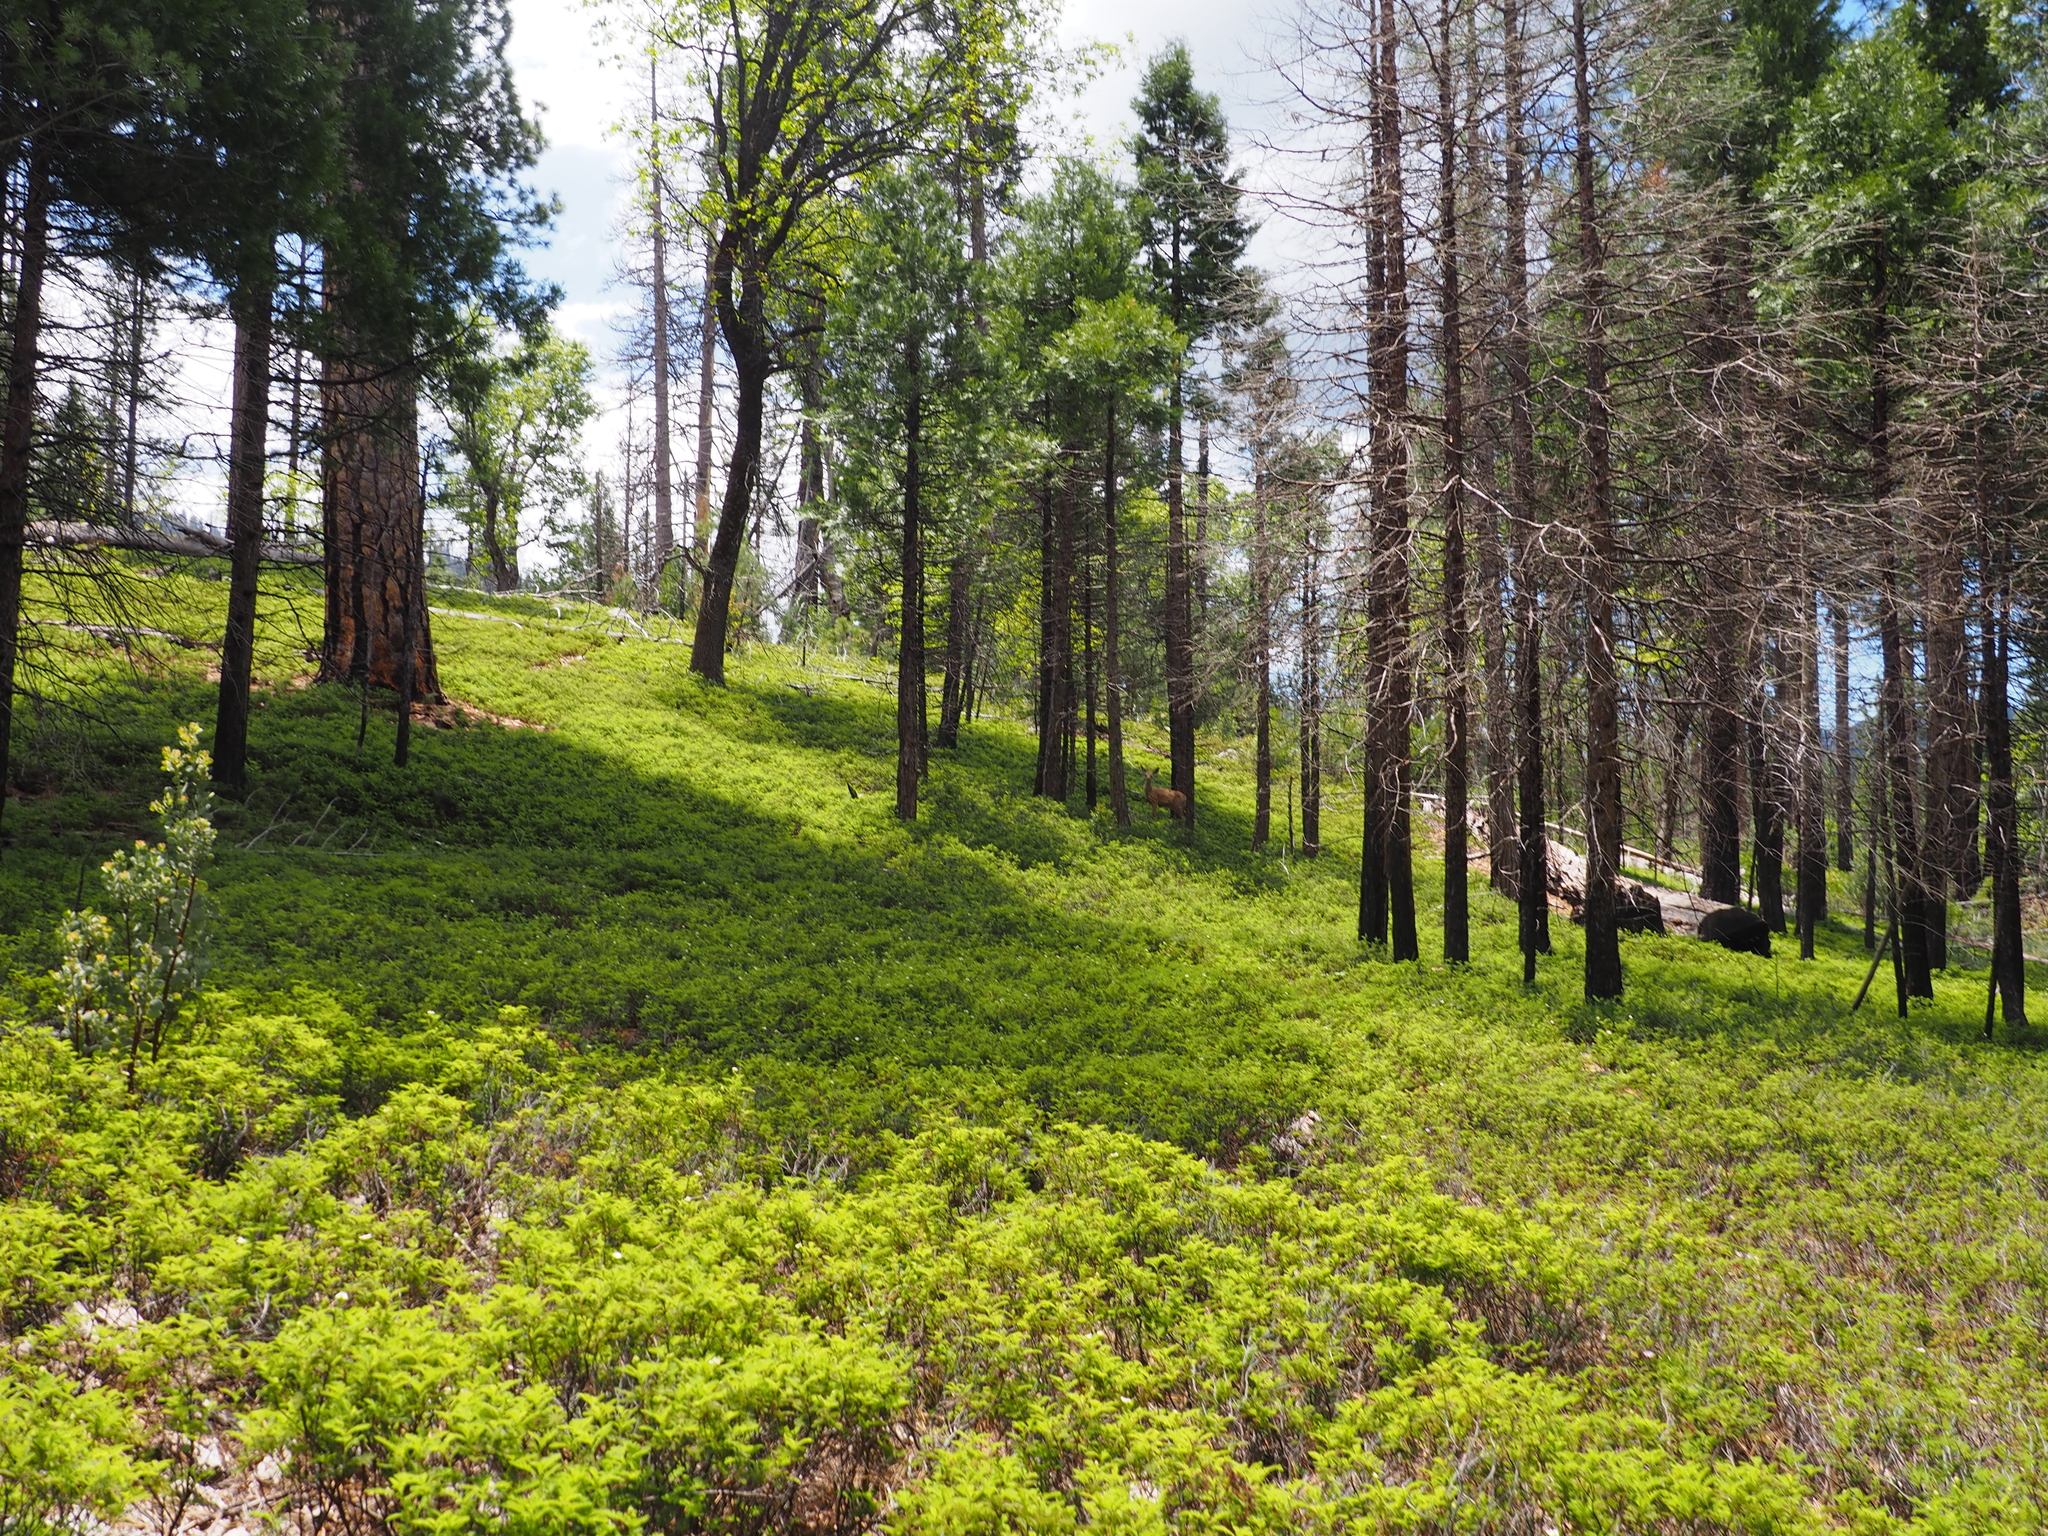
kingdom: Plantae
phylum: Tracheophyta
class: Magnoliopsida
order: Rosales
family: Rosaceae
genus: Chamaebatia
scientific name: Chamaebatia foliolosa
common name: Mountain misery
